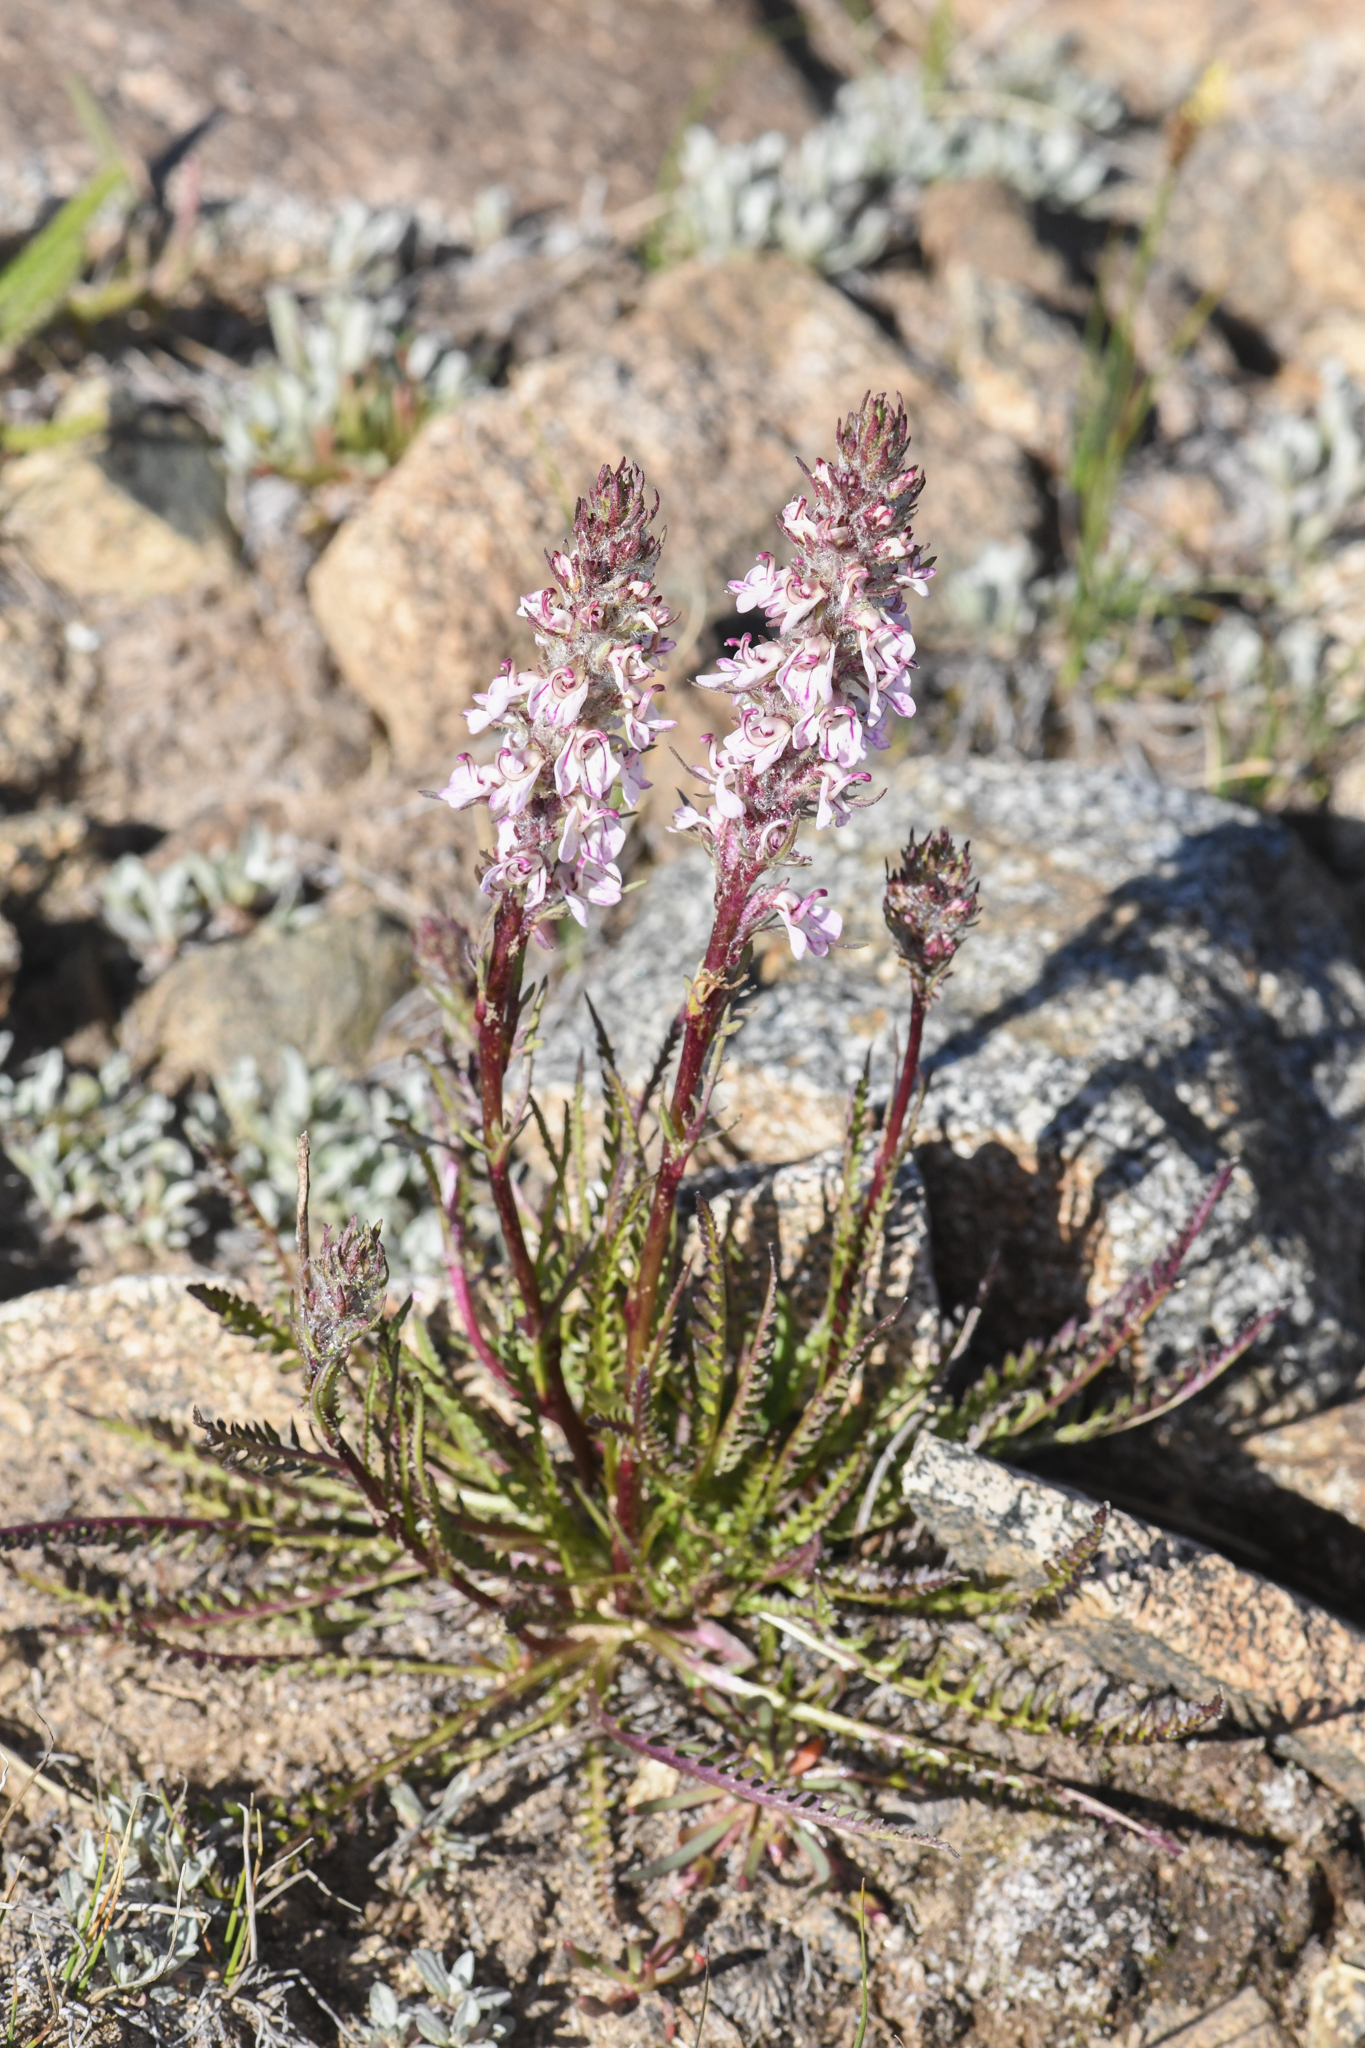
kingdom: Plantae
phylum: Tracheophyta
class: Magnoliopsida
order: Lamiales
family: Orobanchaceae
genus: Pedicularis
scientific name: Pedicularis attollens
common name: Slender pedicularis
